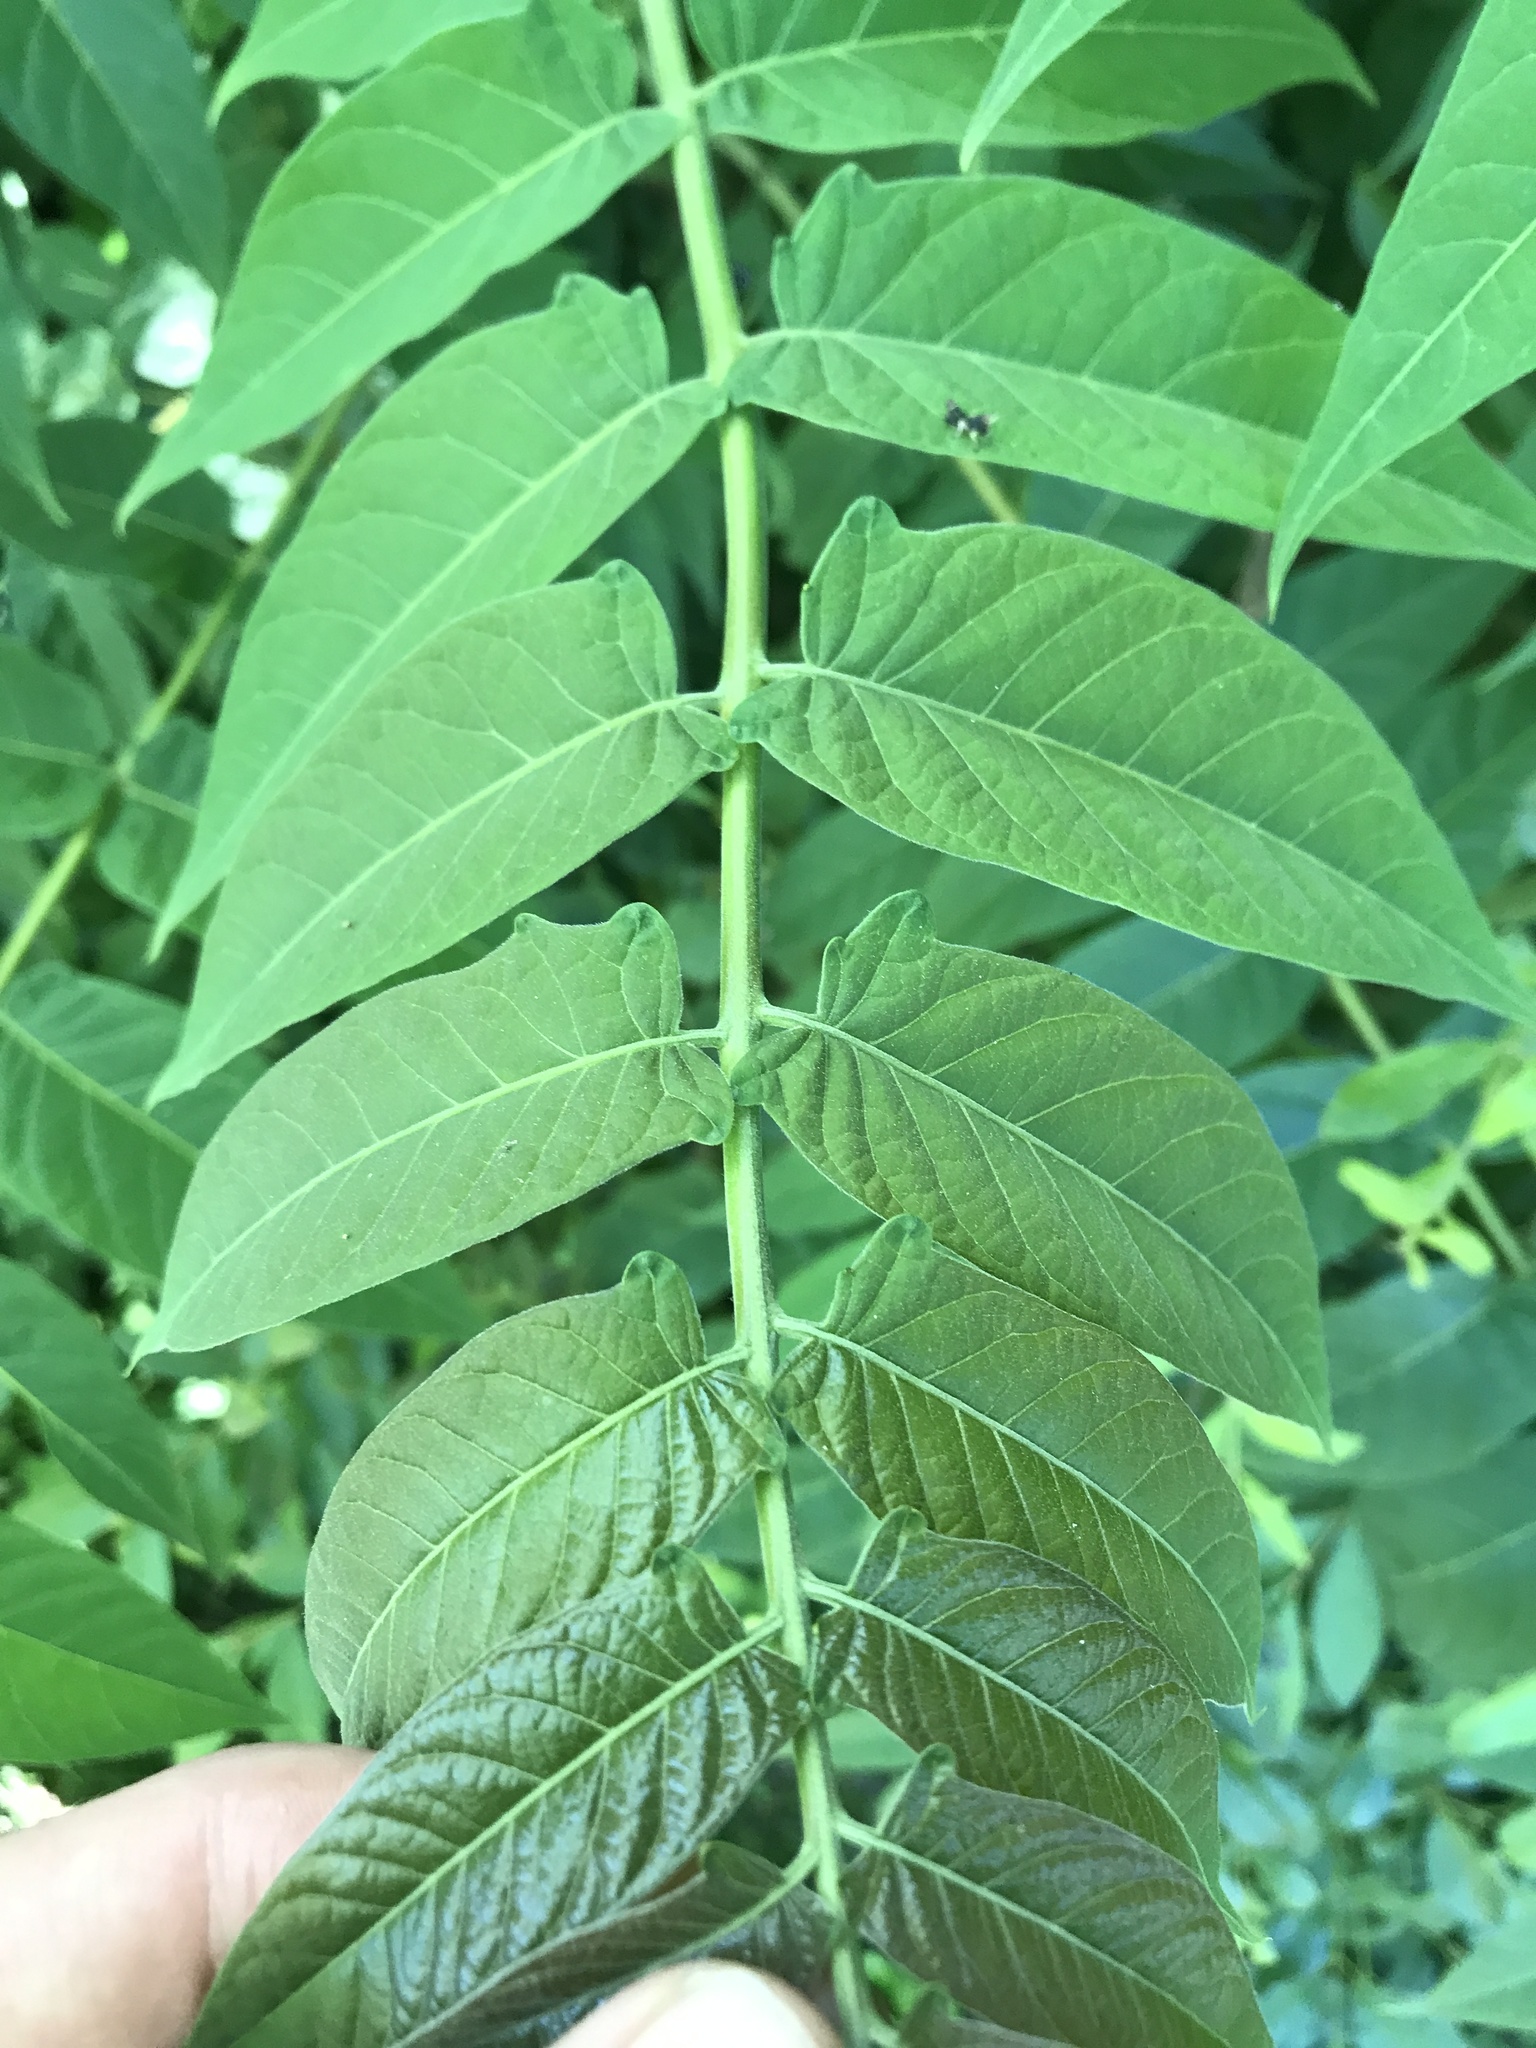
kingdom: Plantae
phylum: Tracheophyta
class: Magnoliopsida
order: Sapindales
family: Simaroubaceae
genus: Ailanthus
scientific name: Ailanthus altissima
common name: Tree-of-heaven
